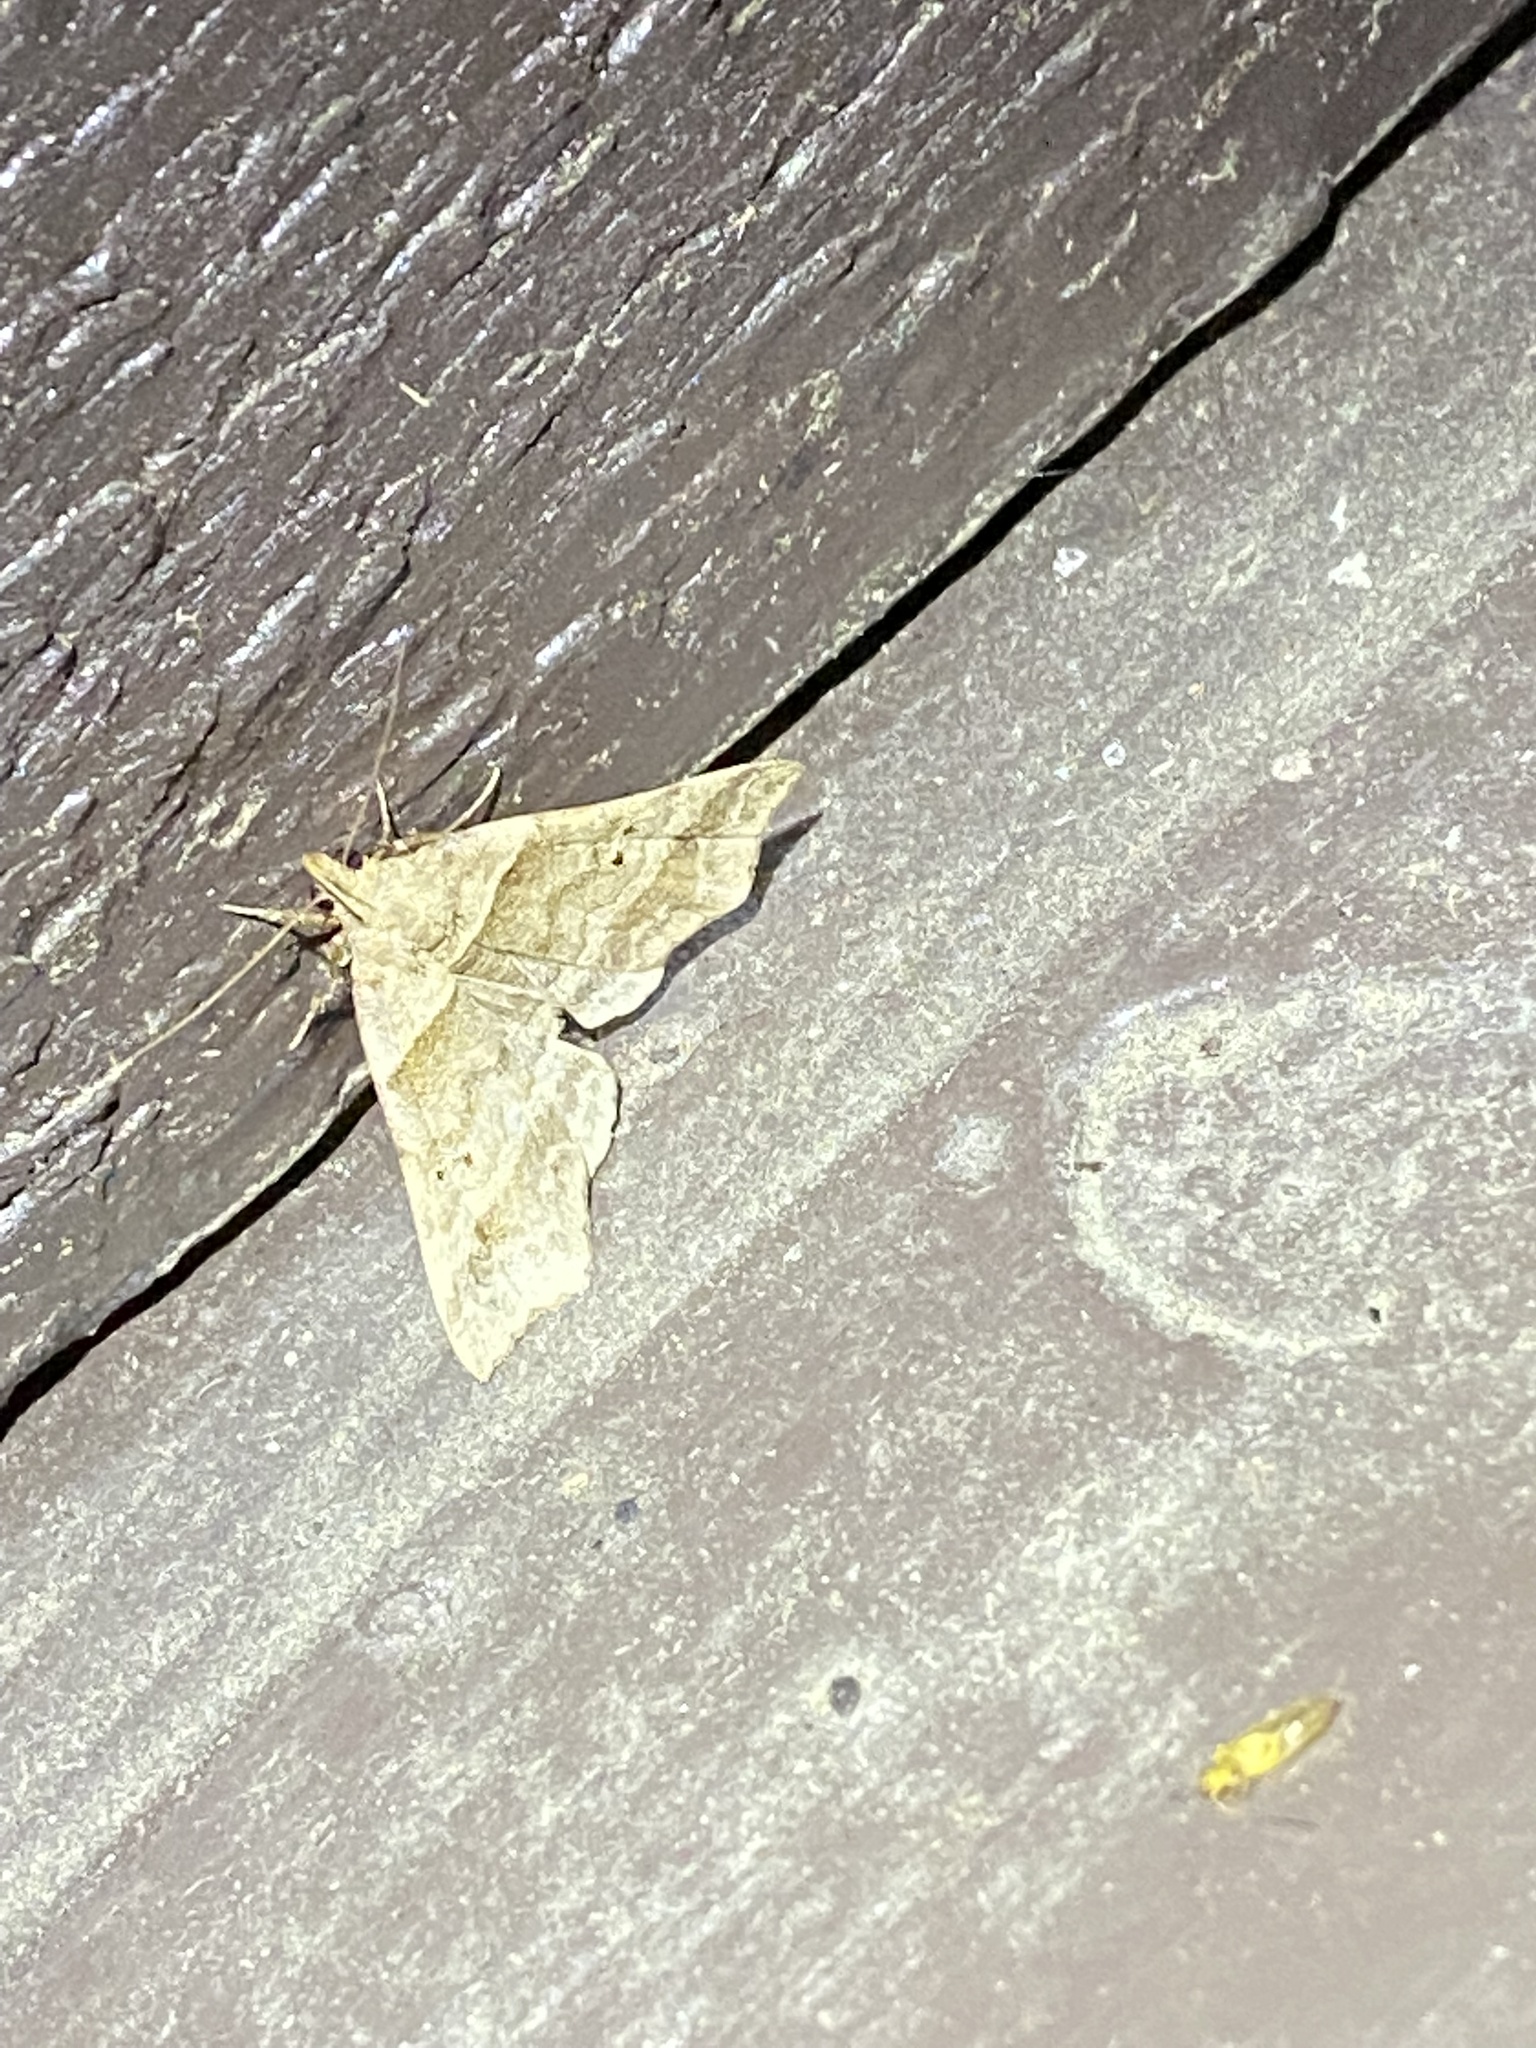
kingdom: Animalia
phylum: Arthropoda
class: Insecta
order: Lepidoptera
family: Erebidae
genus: Phaeolita
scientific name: Phaeolita pyramusalis
